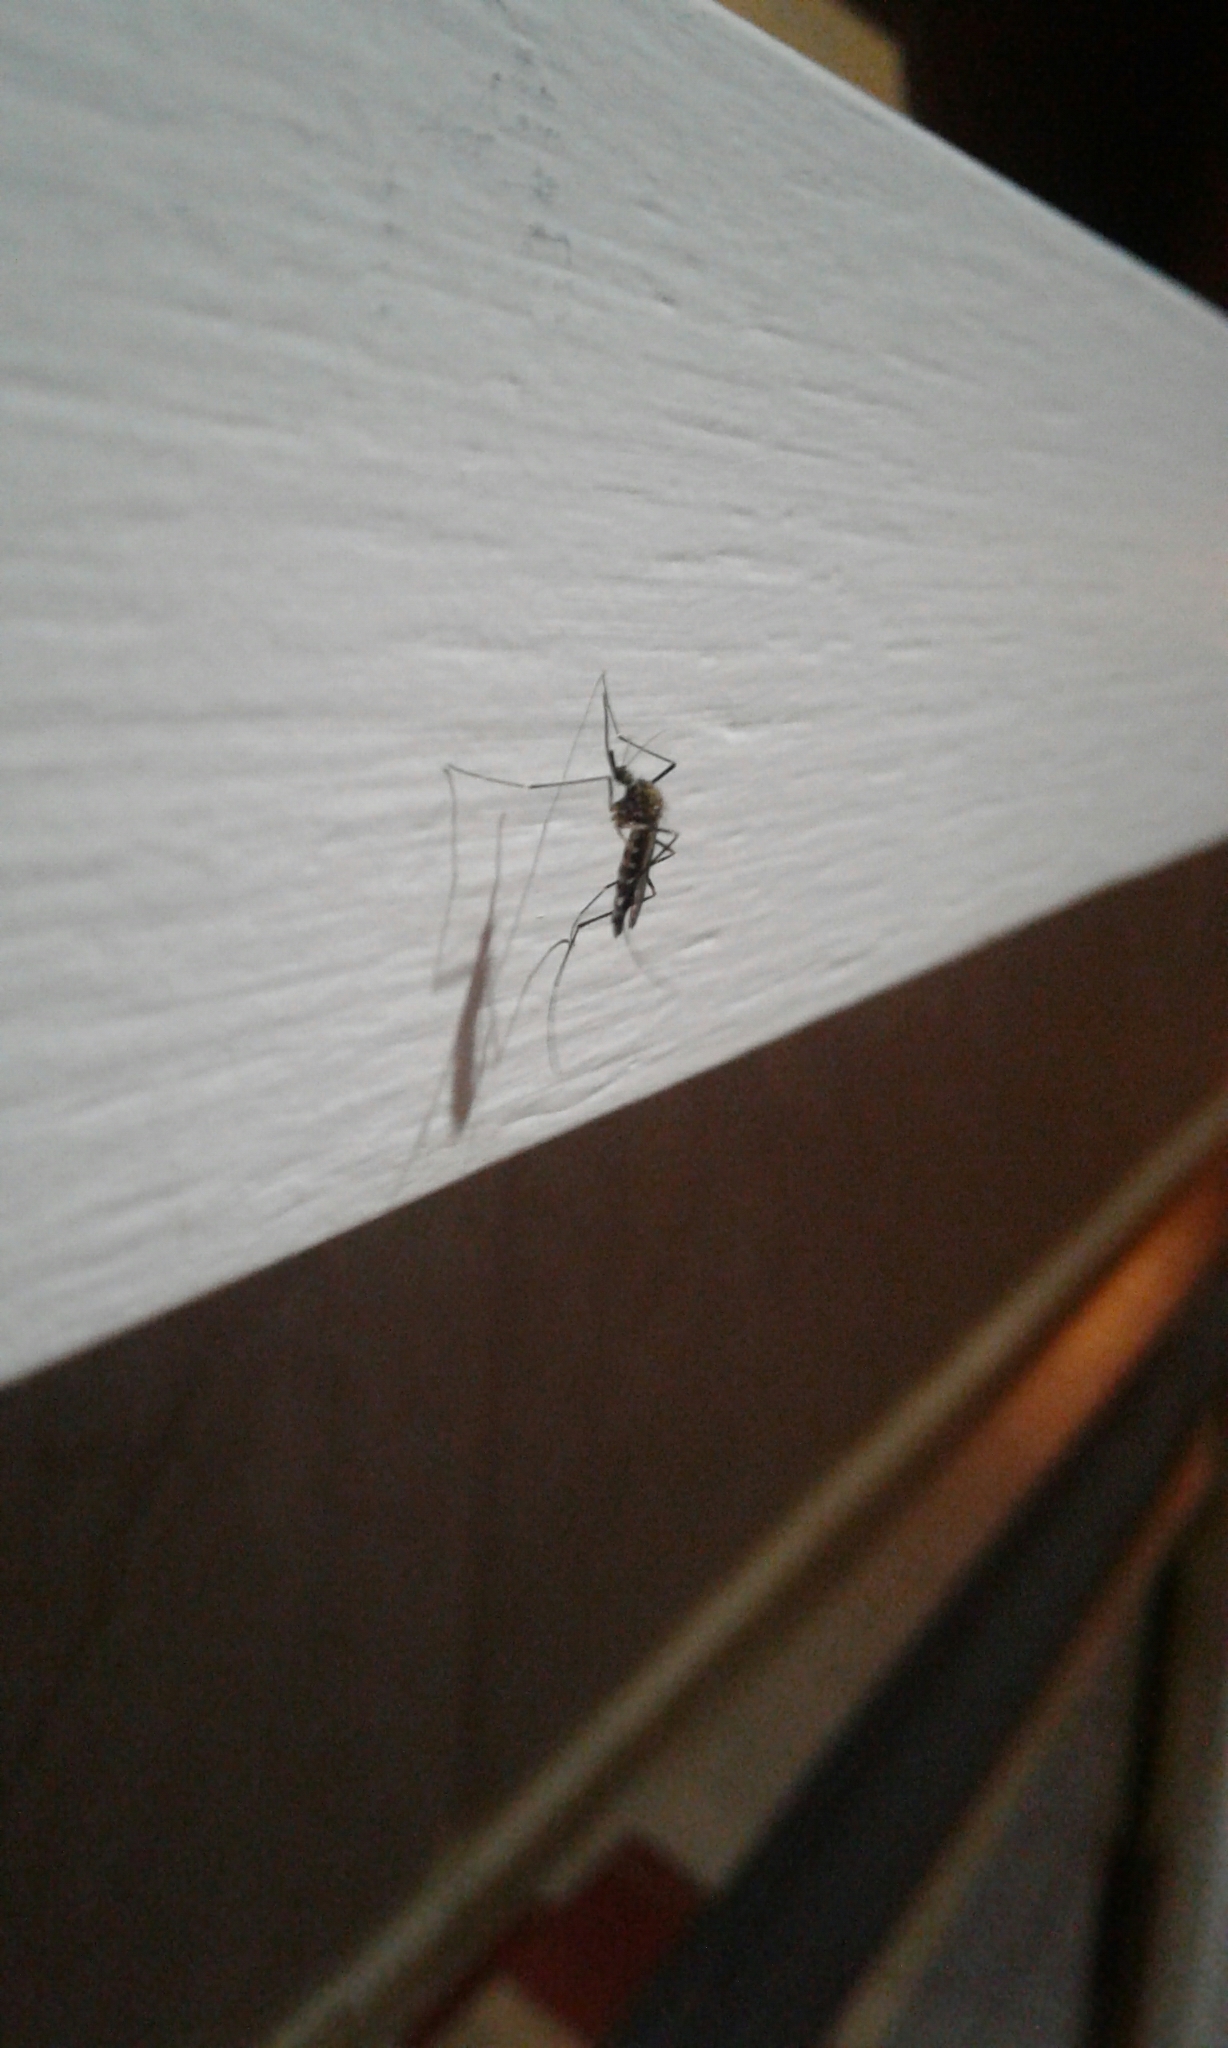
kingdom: Animalia
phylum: Arthropoda
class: Insecta
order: Diptera
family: Culicidae
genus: Aedes
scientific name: Aedes japonicus
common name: Asian bush mosquito
